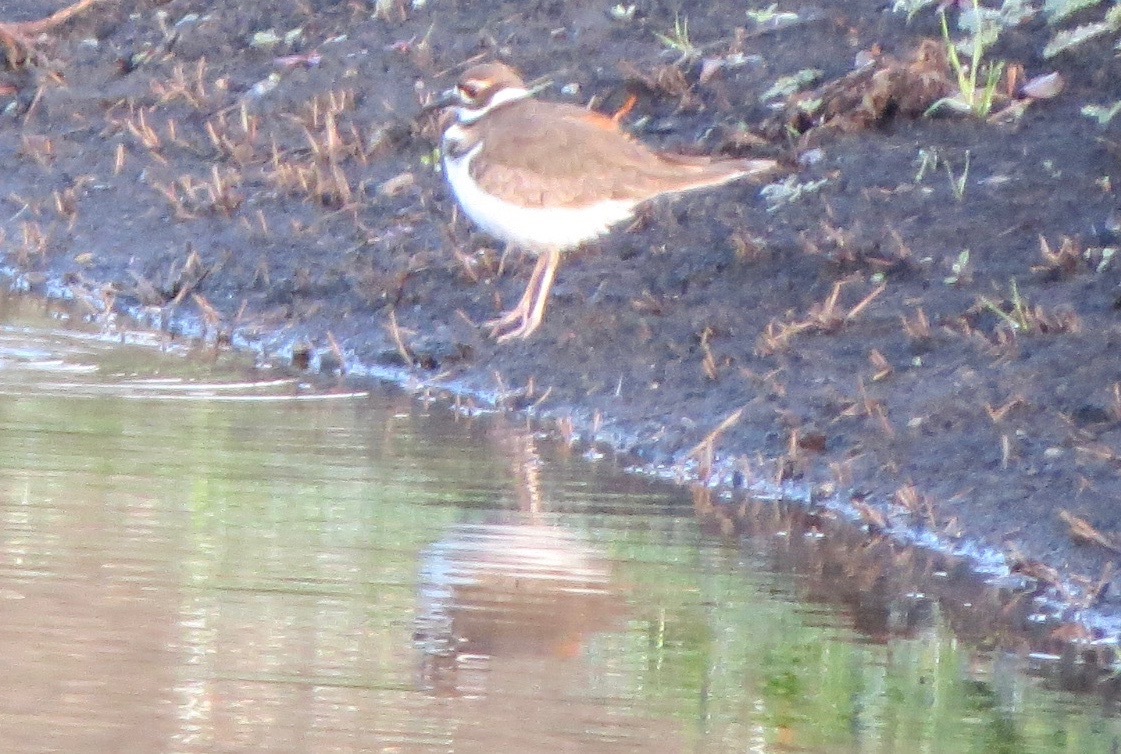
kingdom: Animalia
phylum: Chordata
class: Aves
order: Charadriiformes
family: Charadriidae
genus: Charadrius
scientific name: Charadrius vociferus
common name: Killdeer
